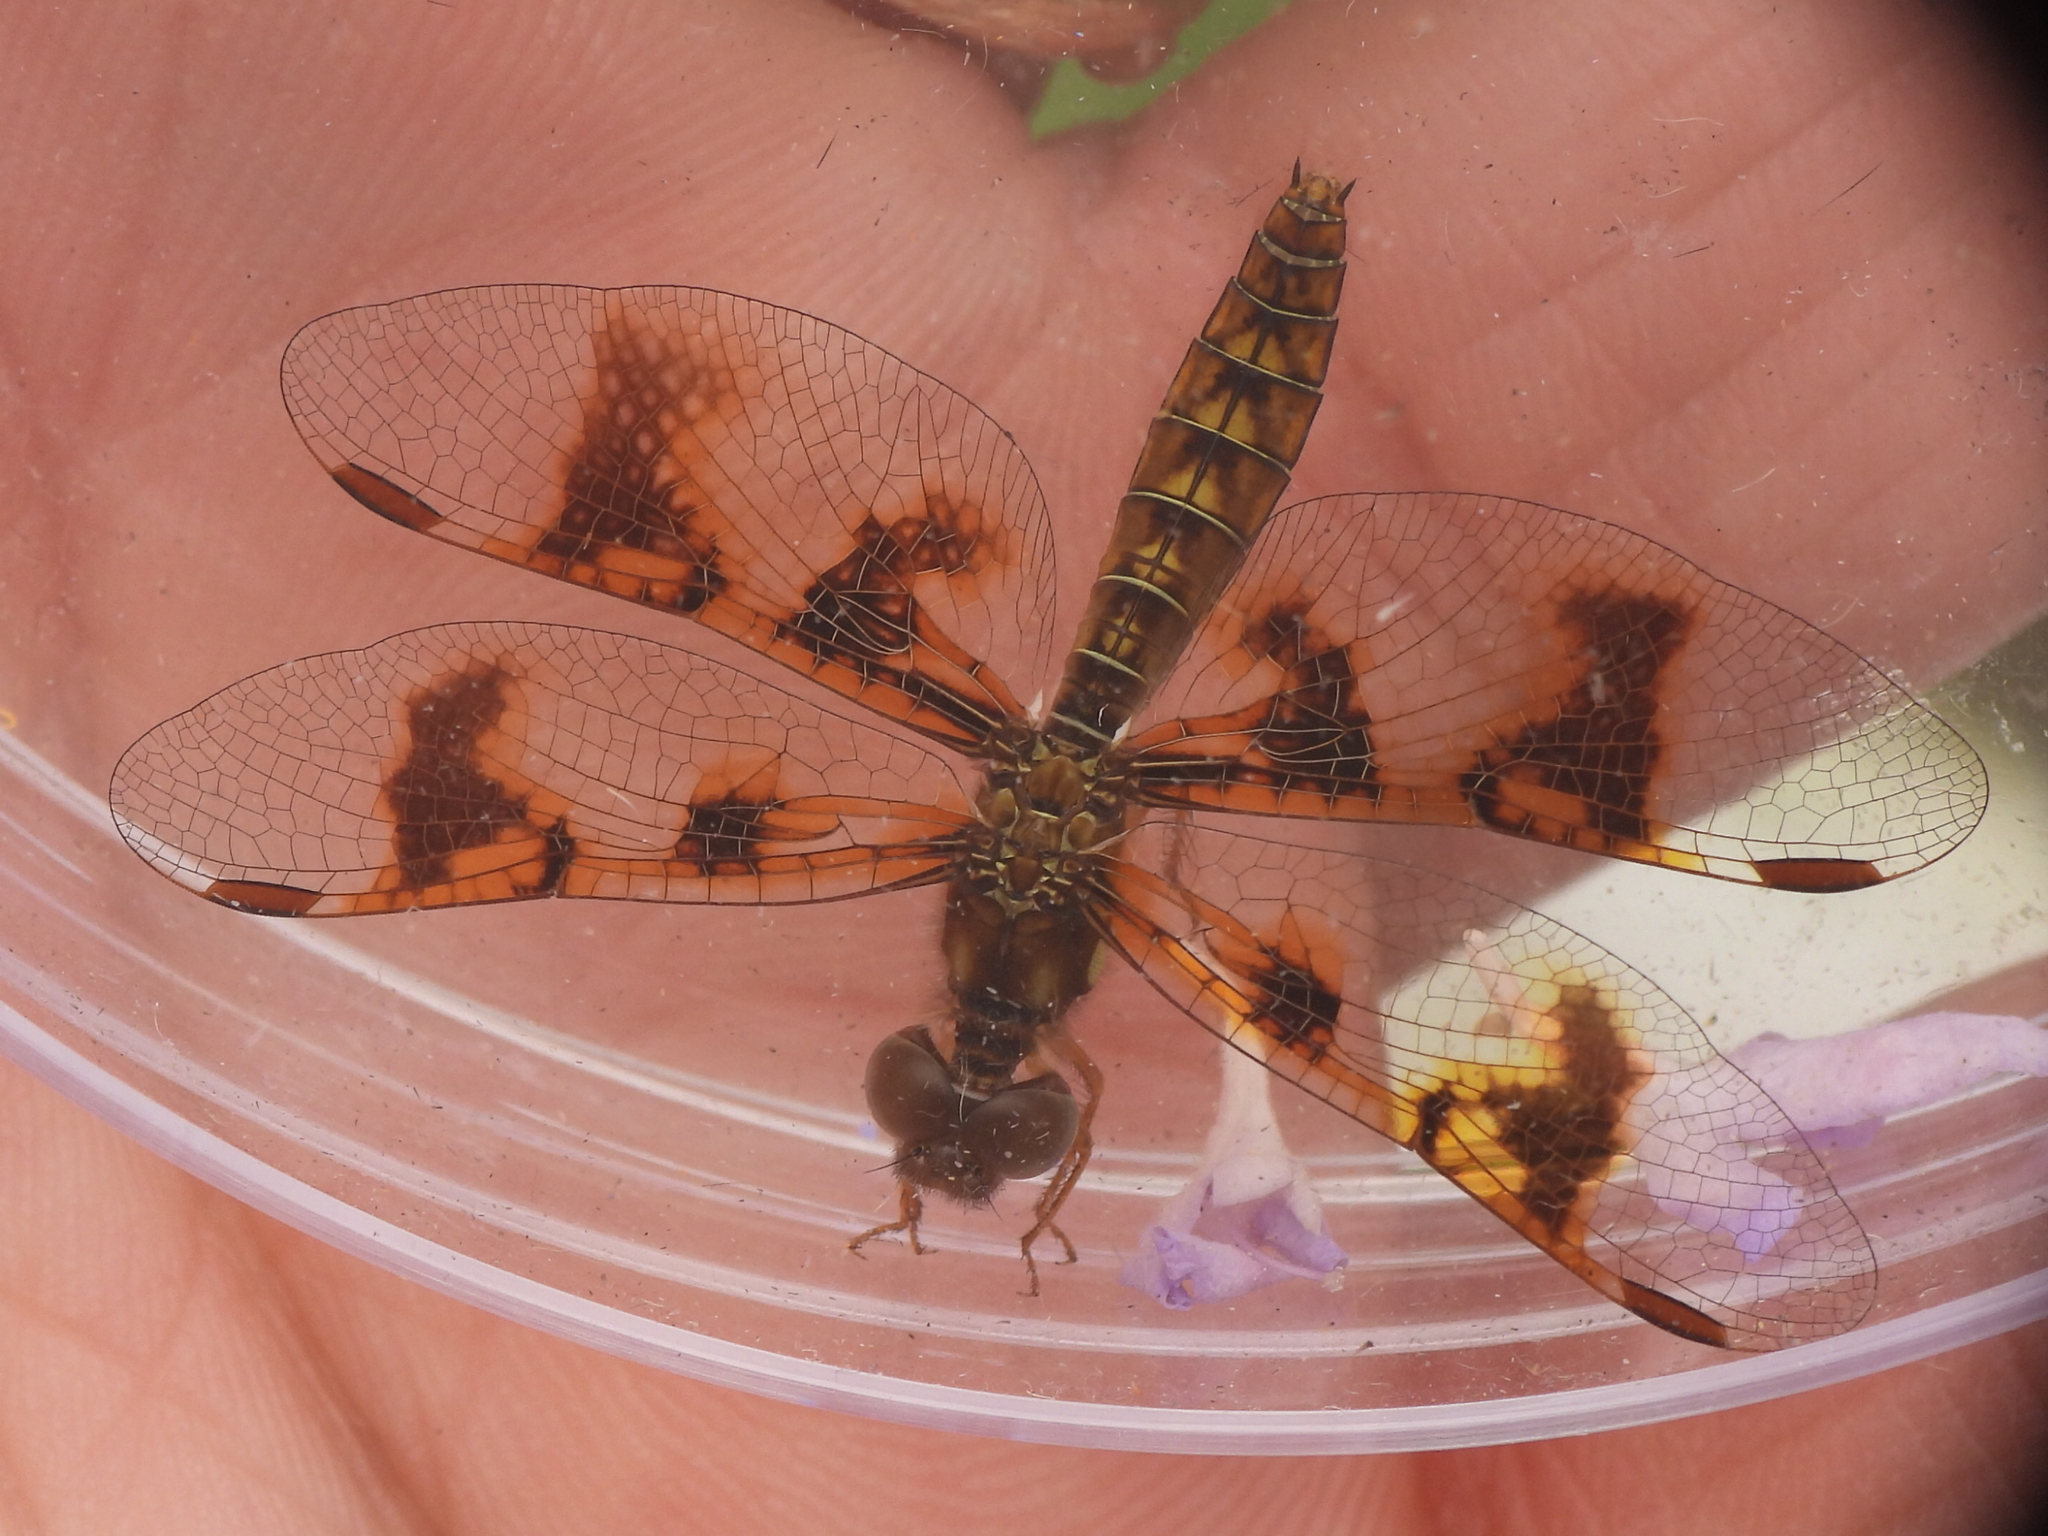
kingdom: Animalia
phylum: Arthropoda
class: Insecta
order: Odonata
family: Libellulidae
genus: Perithemis
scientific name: Perithemis tenera
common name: Eastern amberwing
